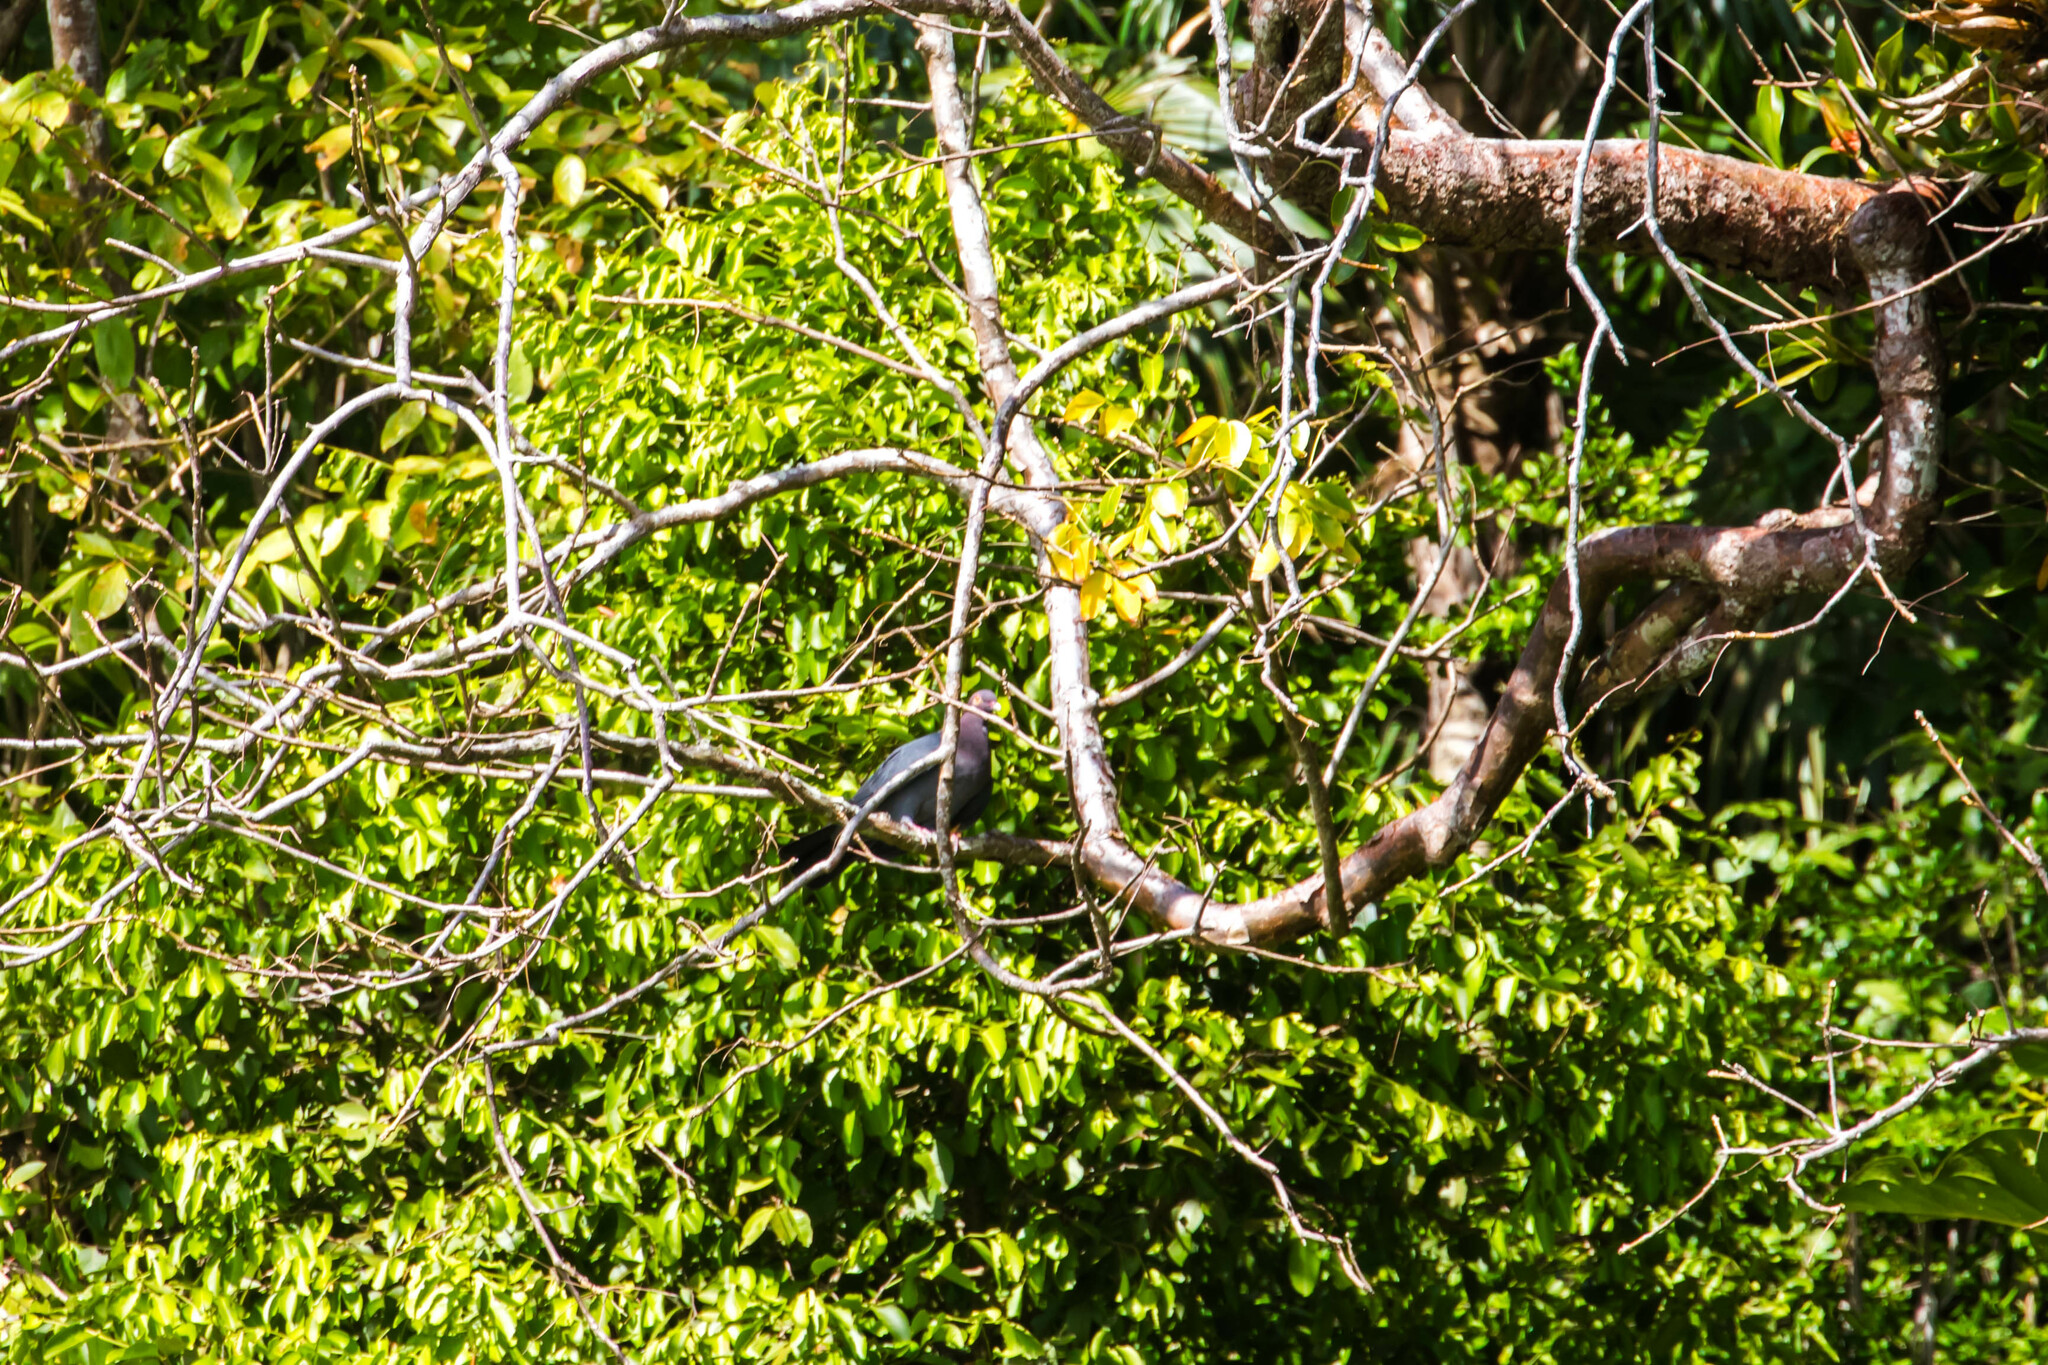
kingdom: Animalia
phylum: Chordata
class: Aves
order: Columbiformes
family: Columbidae
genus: Patagioenas
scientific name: Patagioenas squamosa
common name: Scaly-naped pigeon
